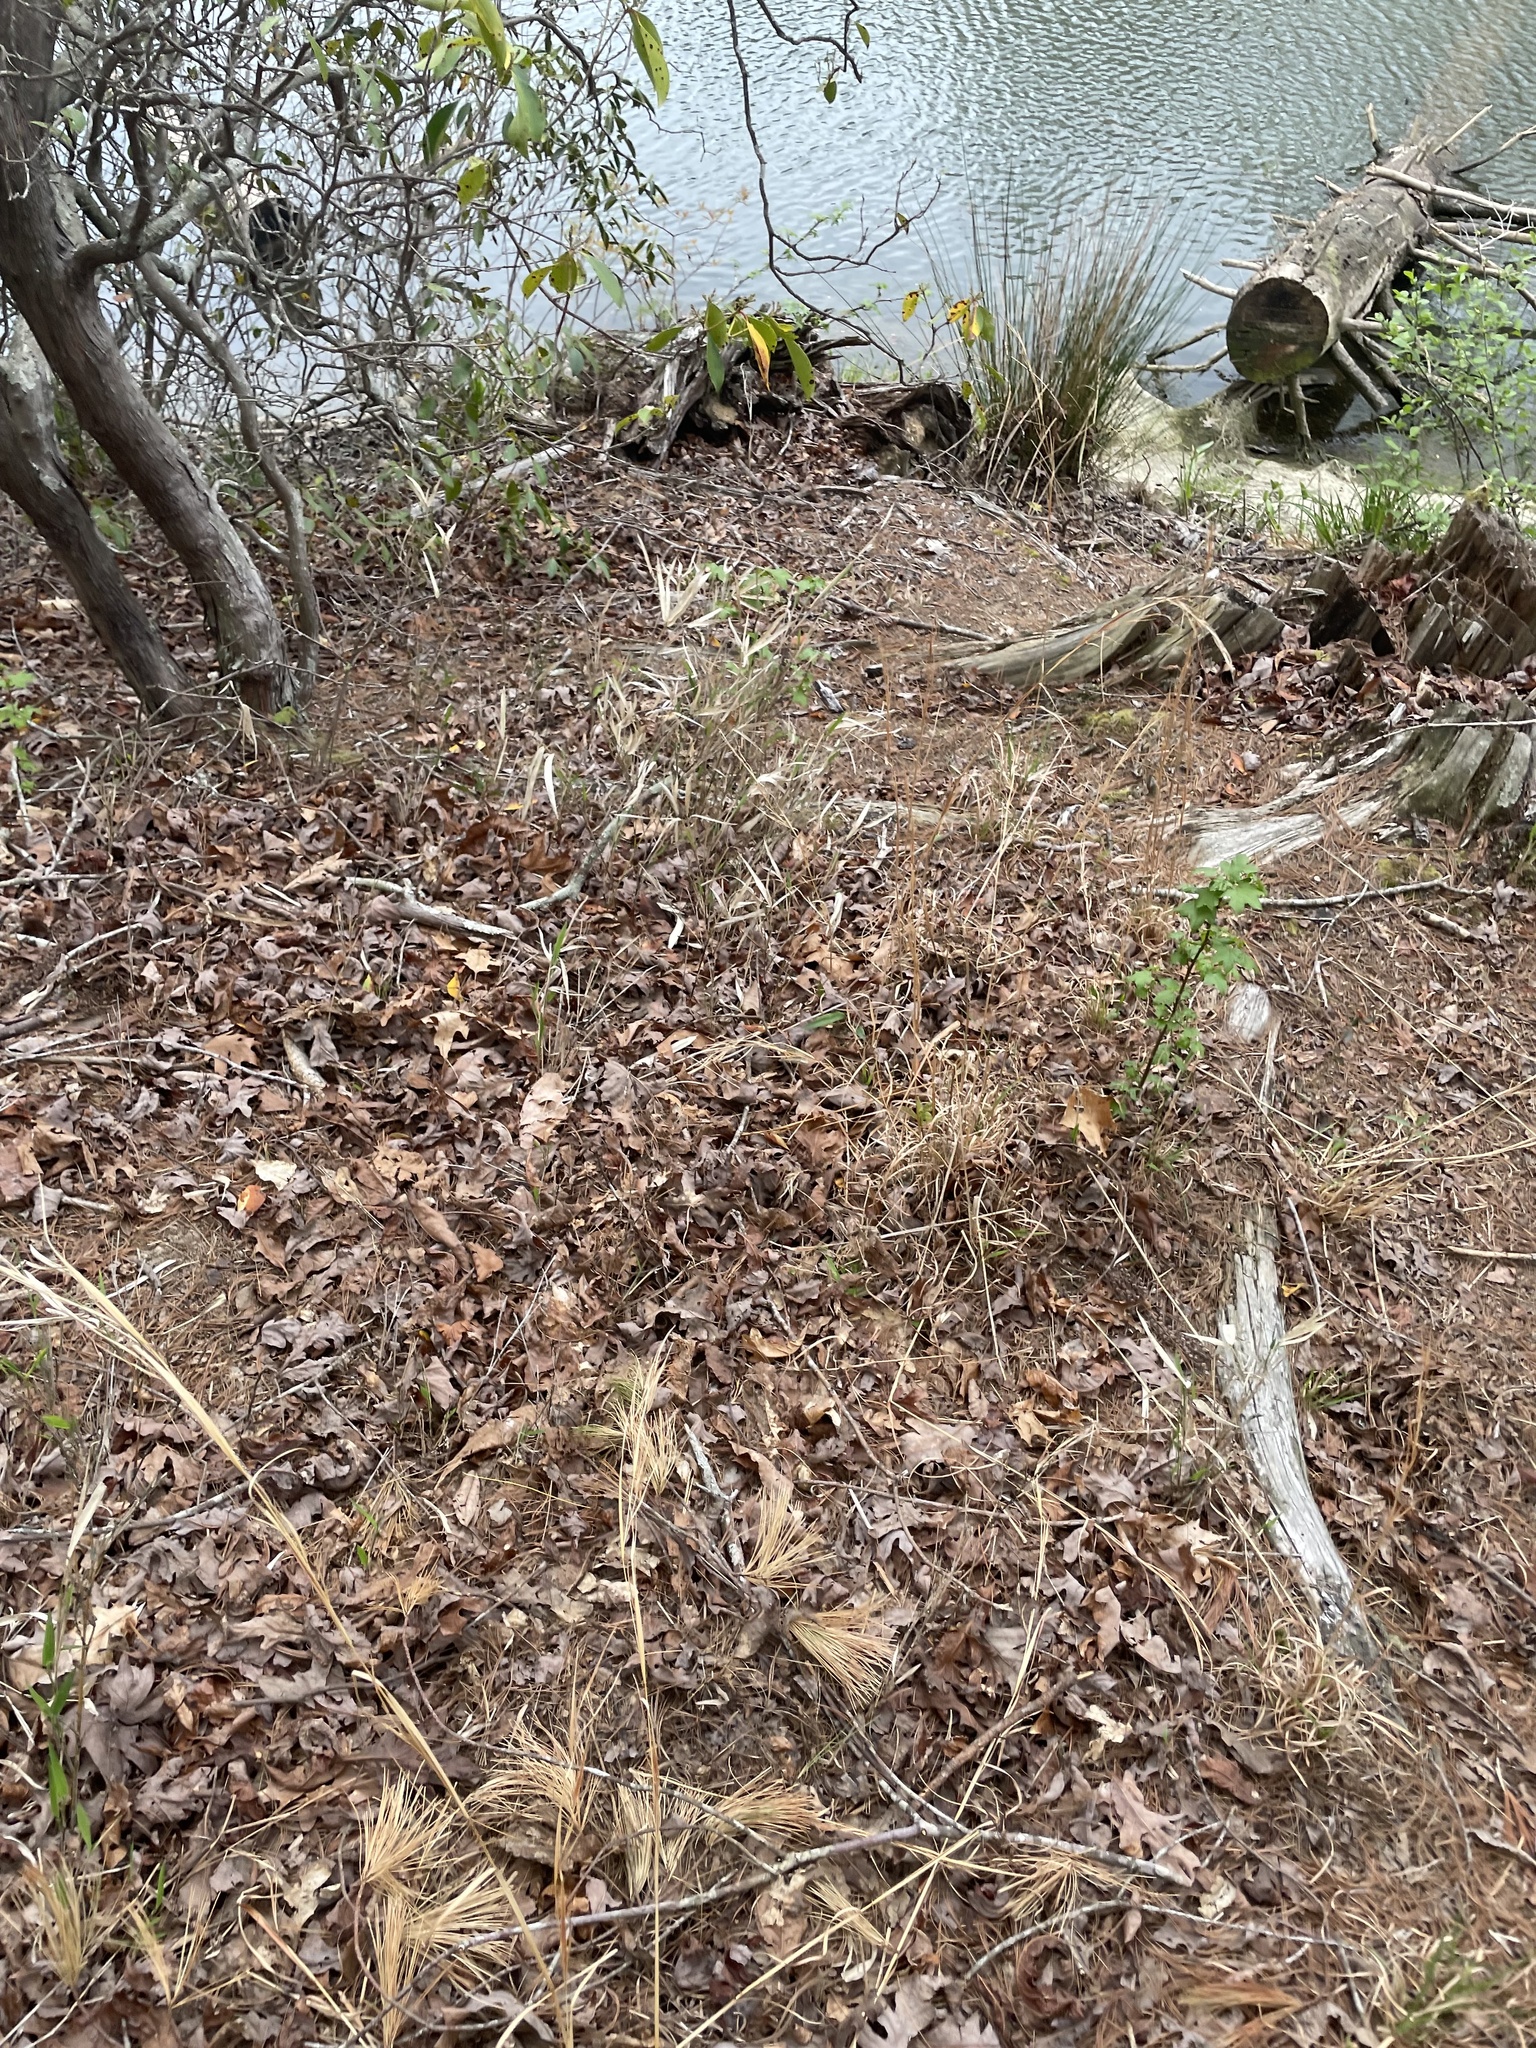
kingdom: Plantae
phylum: Tracheophyta
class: Liliopsida
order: Poales
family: Poaceae
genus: Arundinaria
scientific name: Arundinaria appalachiana
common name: Hill cane
